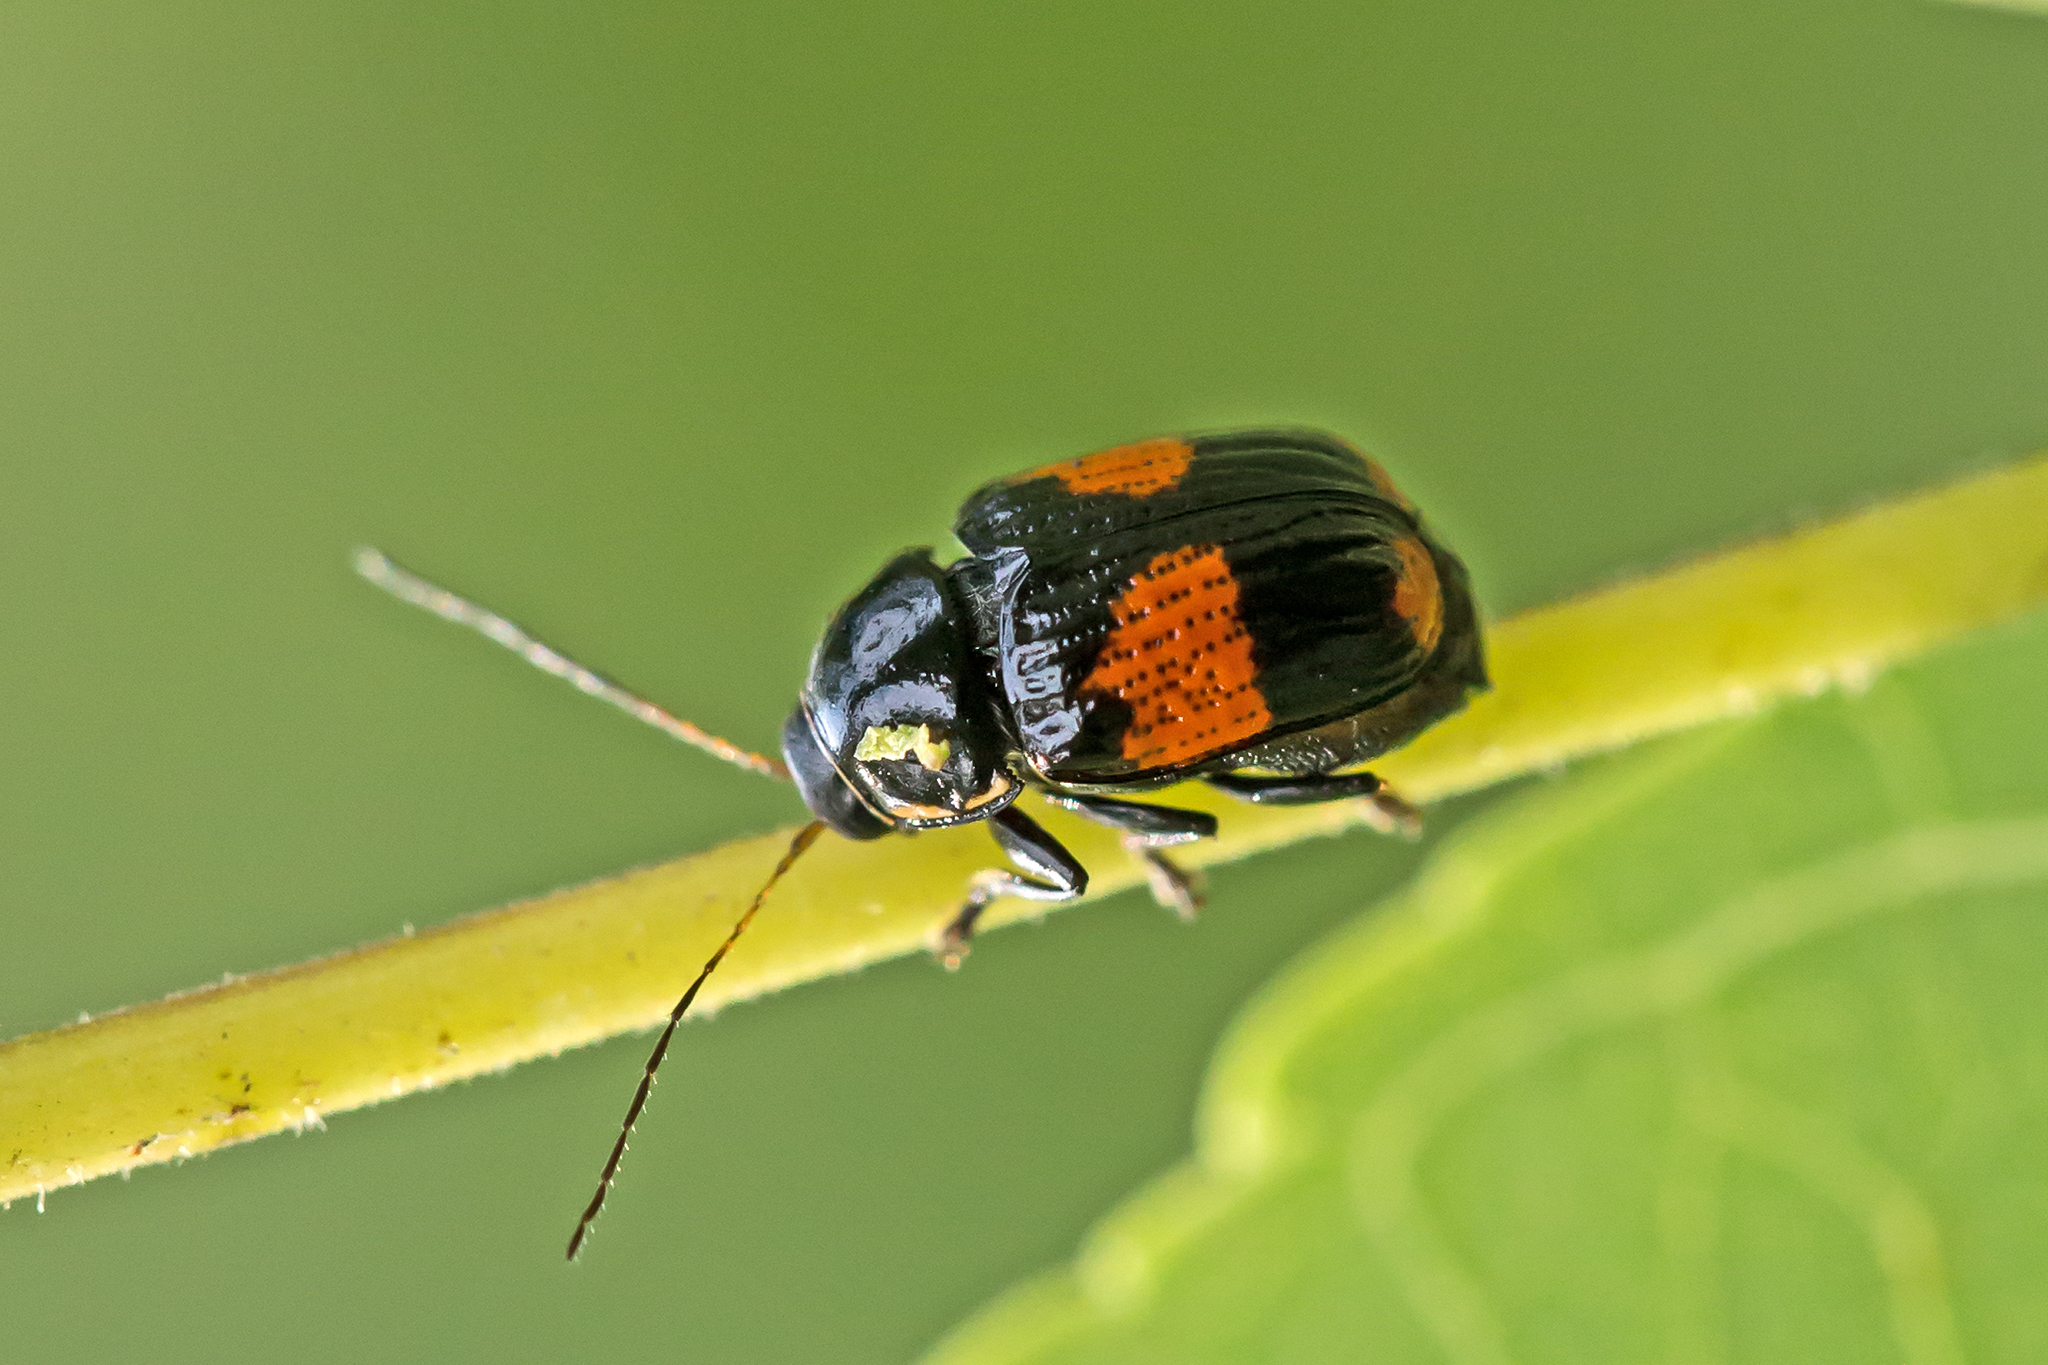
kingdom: Animalia
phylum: Arthropoda
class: Insecta
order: Coleoptera
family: Chrysomelidae
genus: Bassareus
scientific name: Bassareus mammifer
